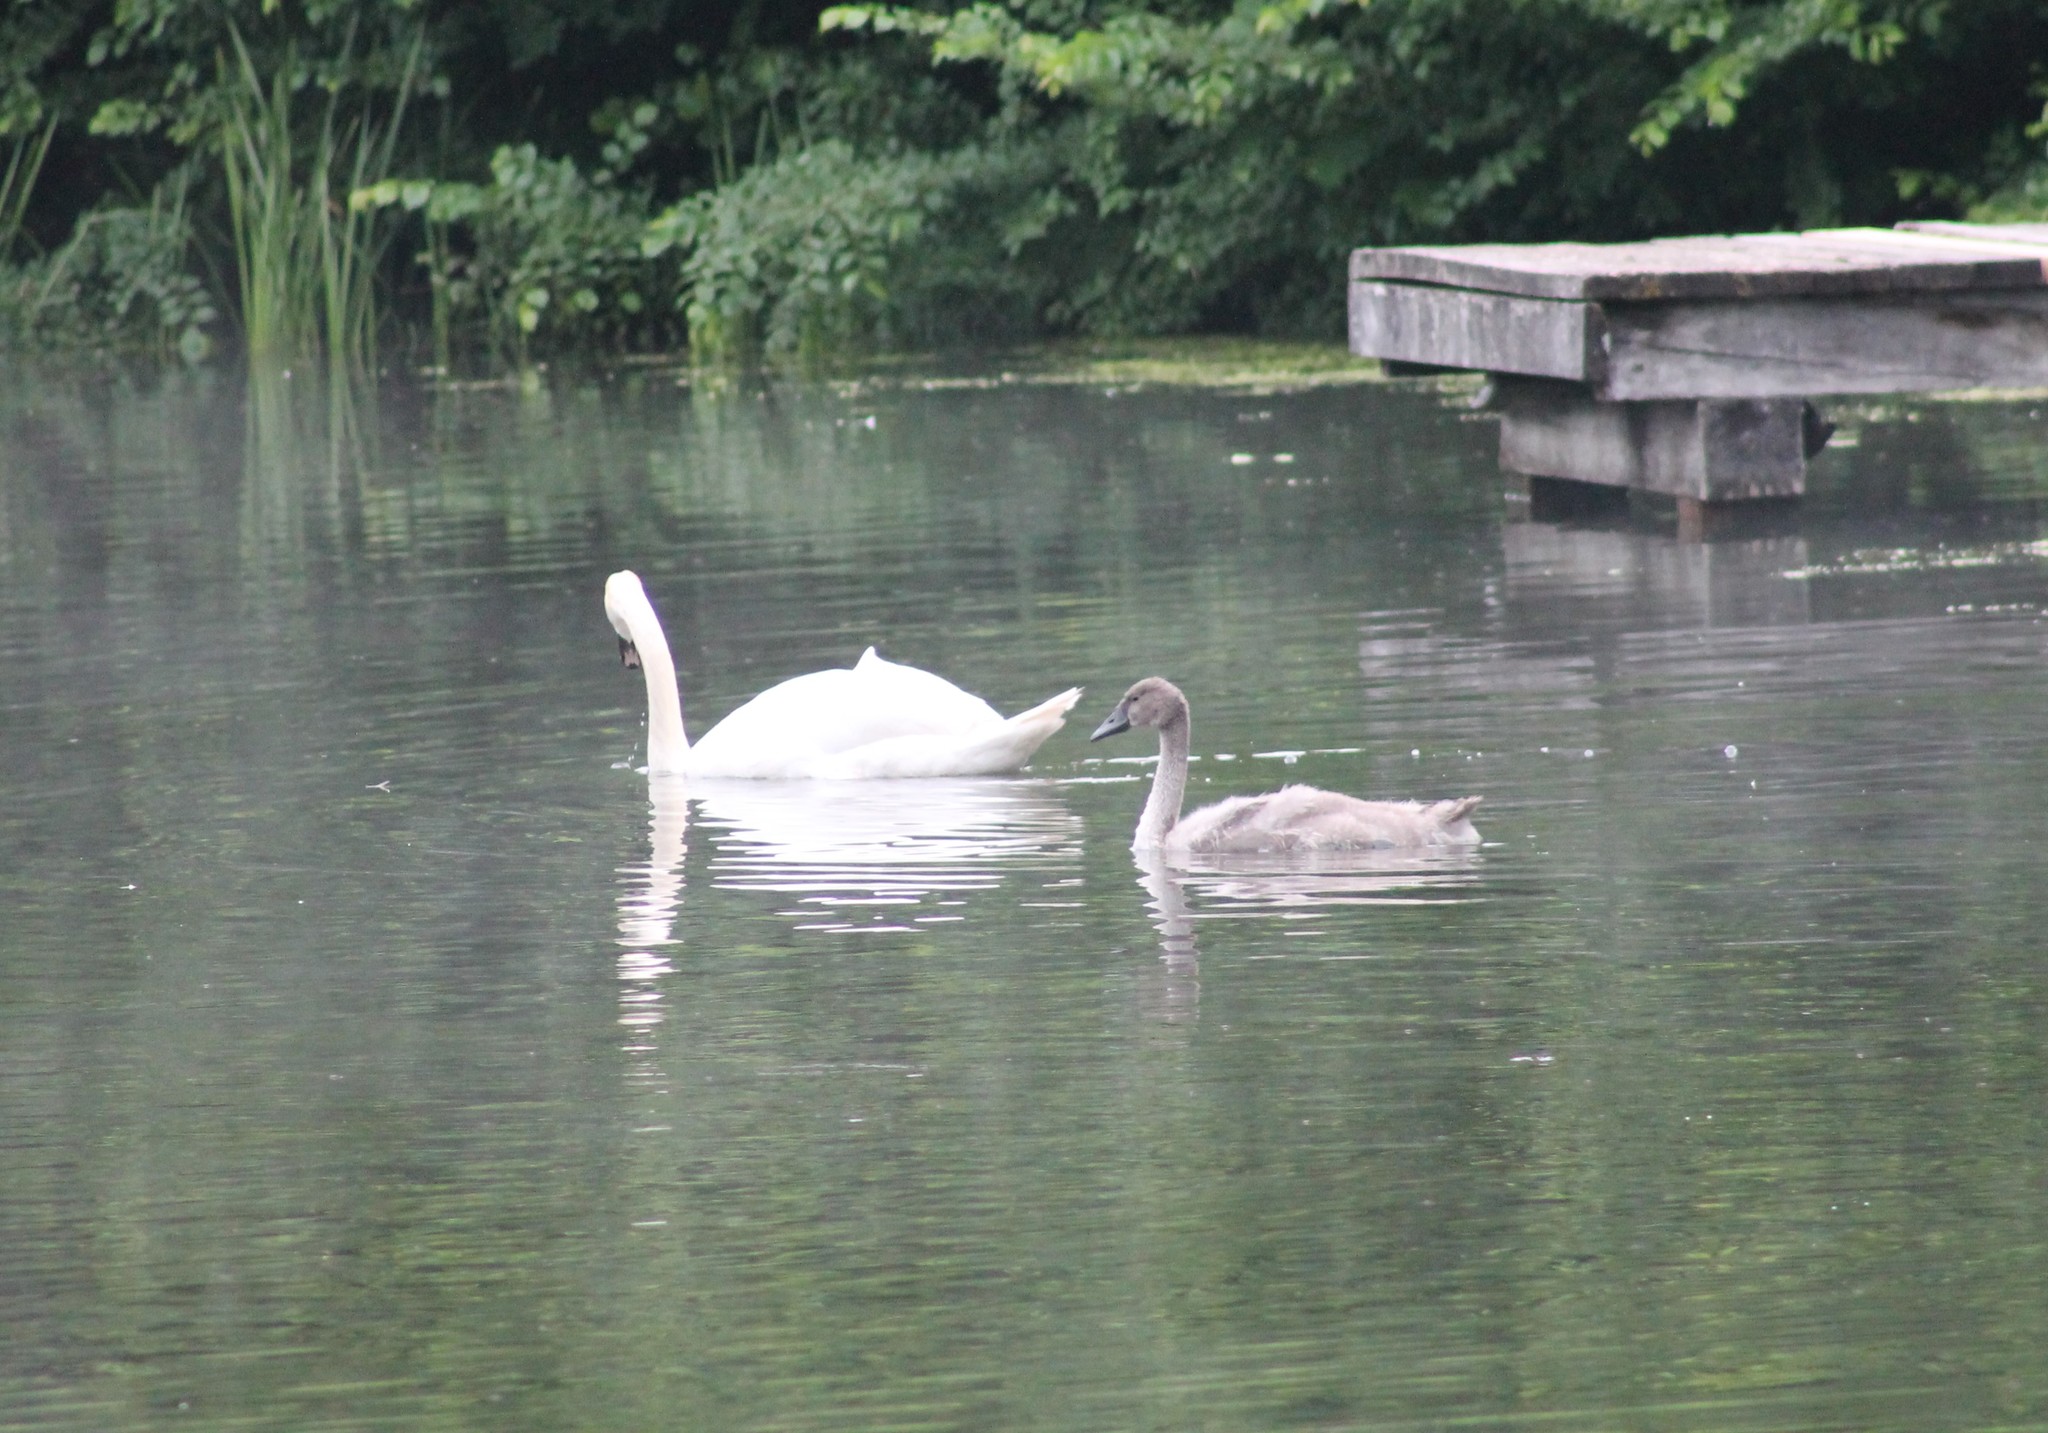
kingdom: Animalia
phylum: Chordata
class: Aves
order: Anseriformes
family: Anatidae
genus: Cygnus
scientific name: Cygnus olor
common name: Mute swan
